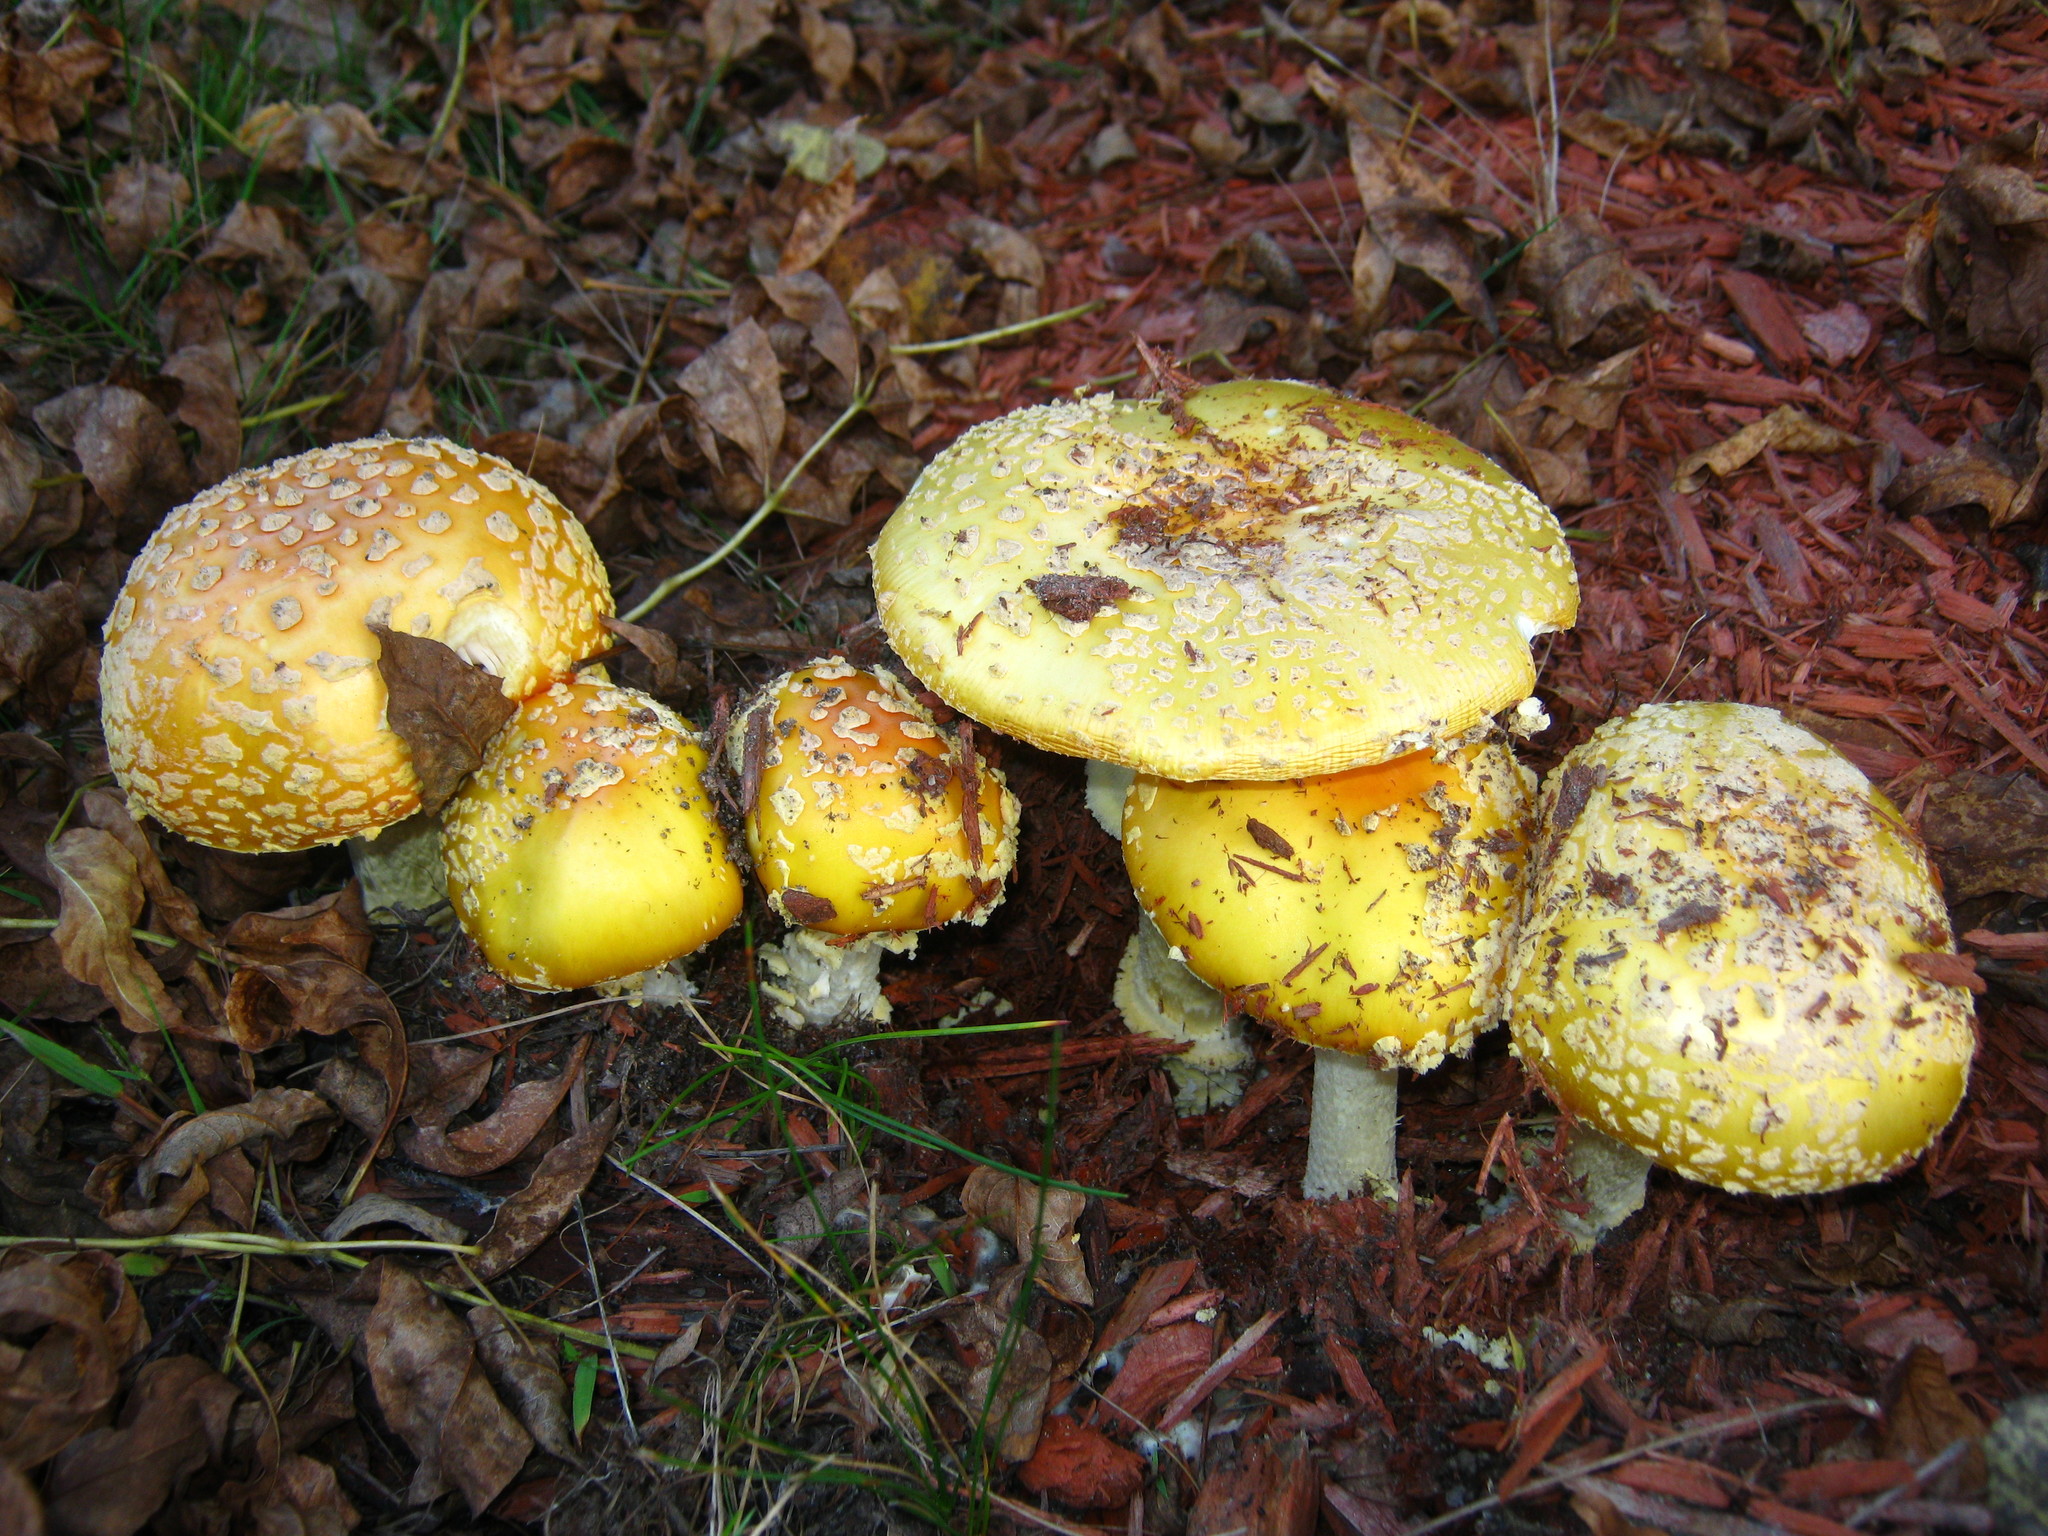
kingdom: Fungi
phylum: Basidiomycota
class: Agaricomycetes
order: Agaricales
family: Amanitaceae
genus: Amanita
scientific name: Amanita muscaria
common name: Fly agaric
